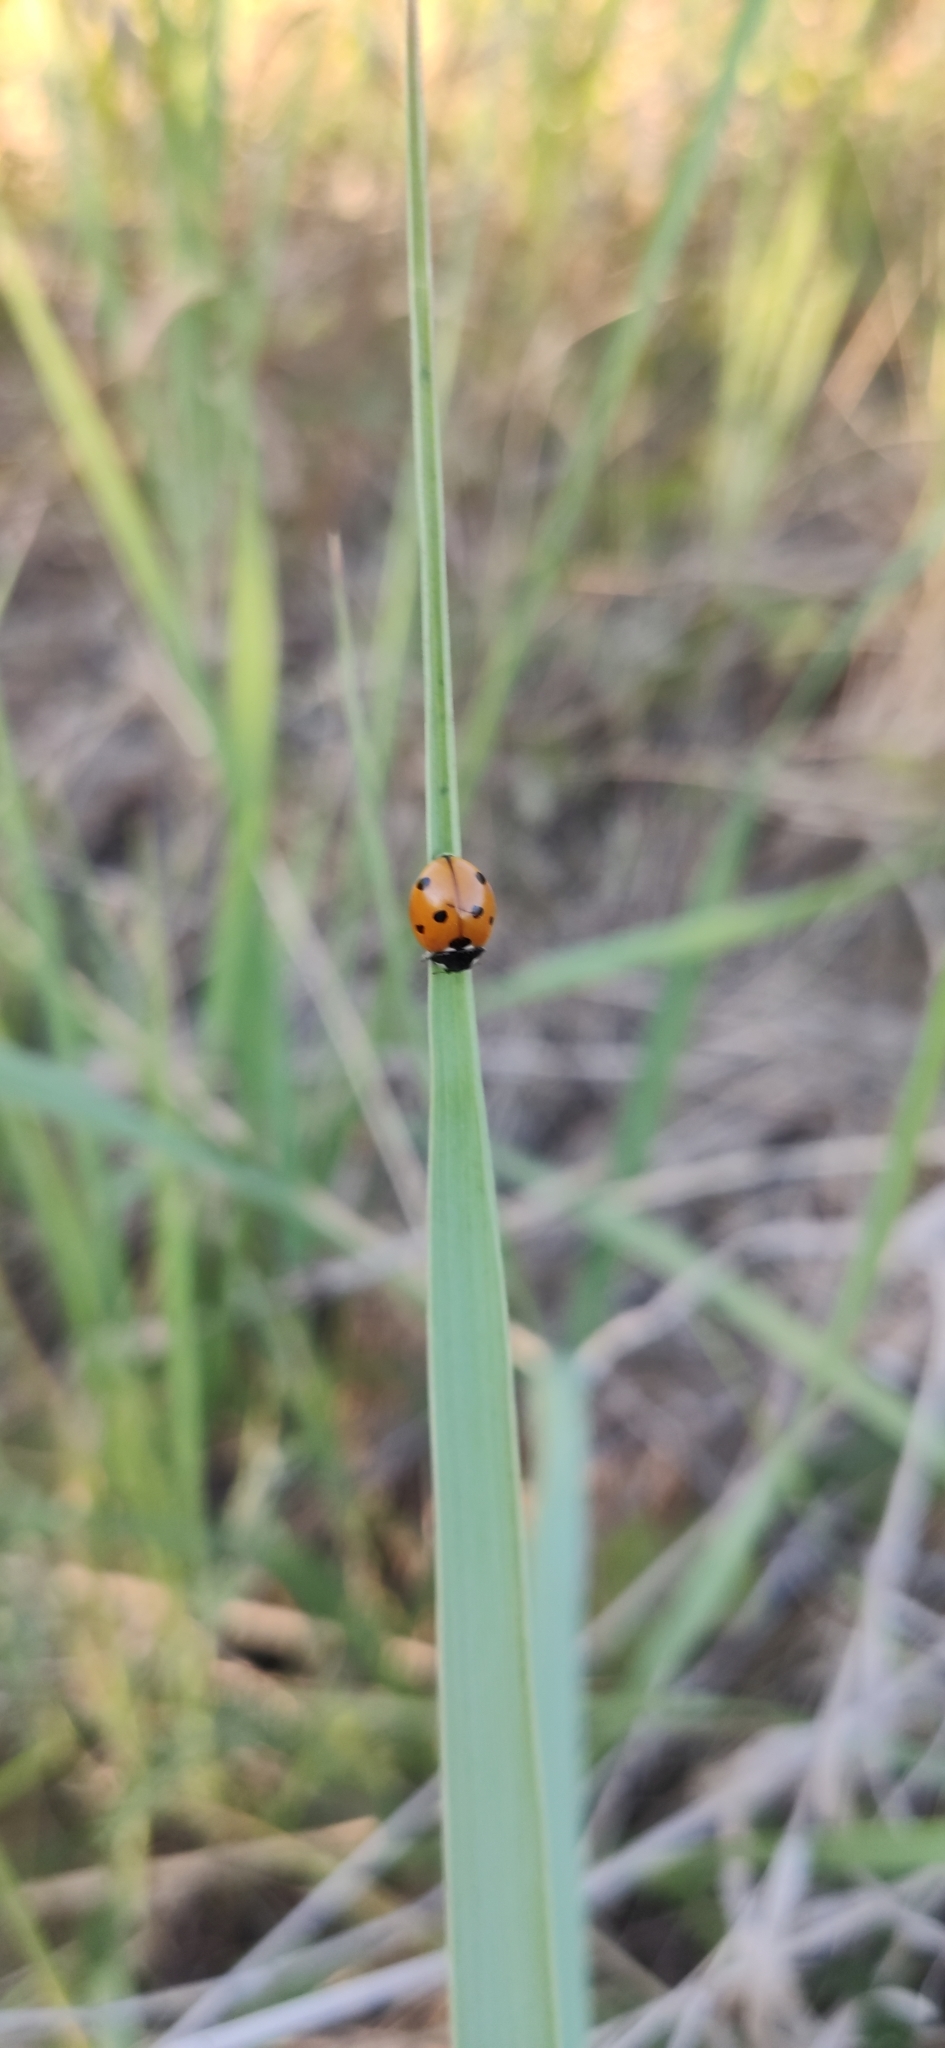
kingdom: Animalia
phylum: Arthropoda
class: Insecta
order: Coleoptera
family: Coccinellidae
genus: Coccinella
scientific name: Coccinella septempunctata
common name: Sevenspotted lady beetle
